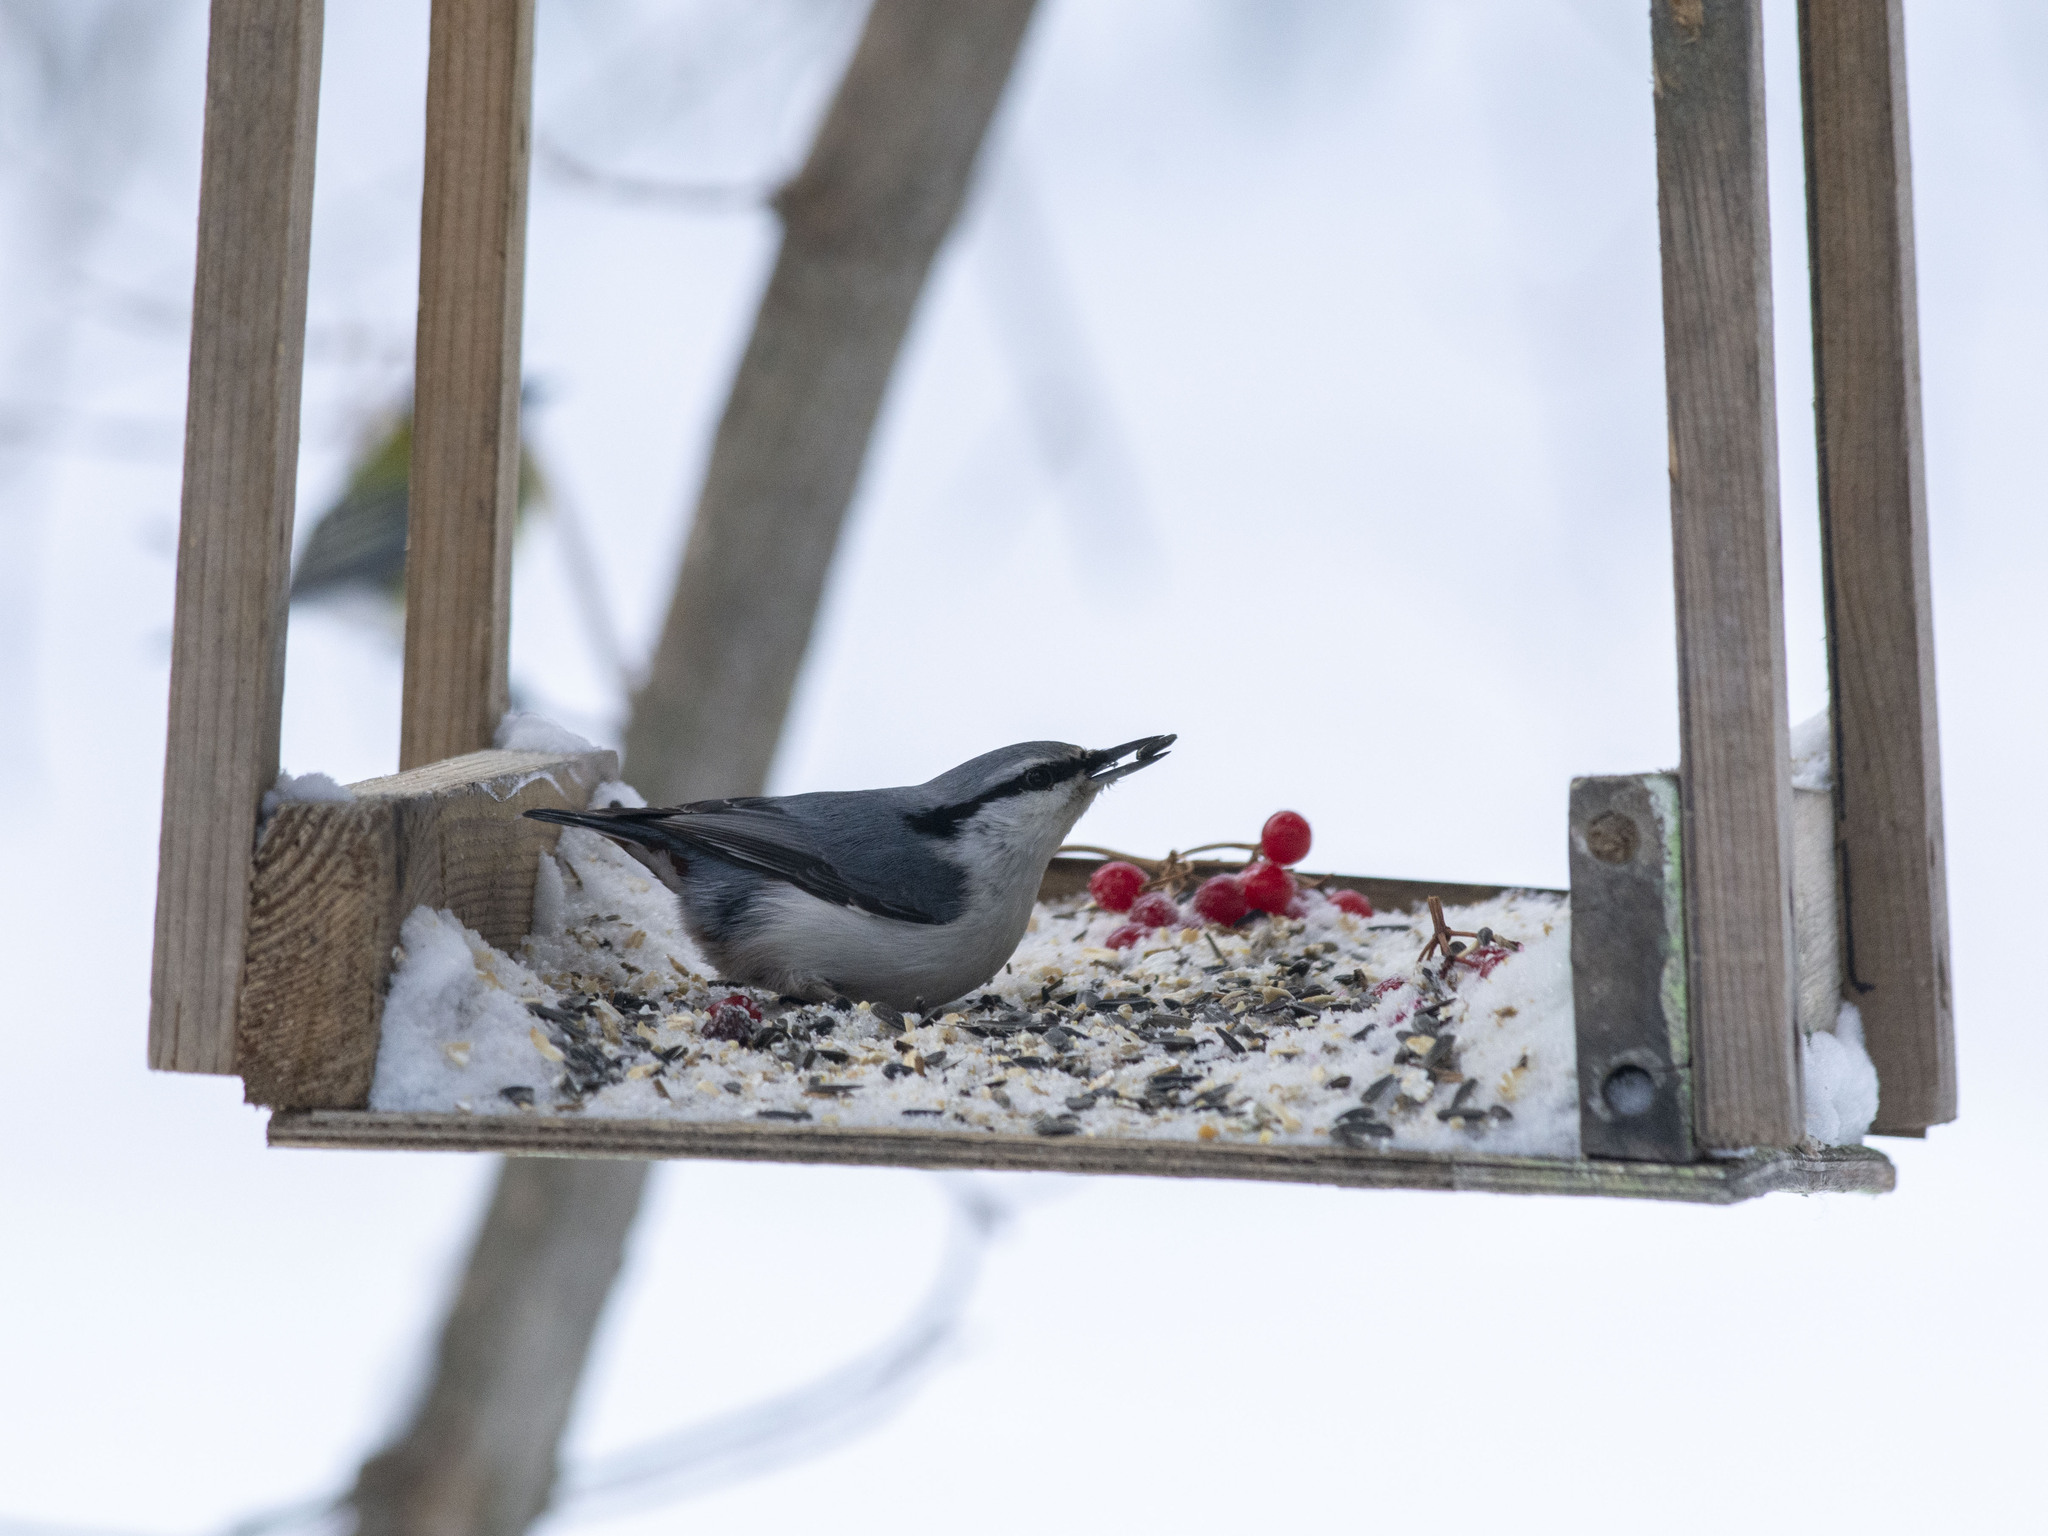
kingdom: Animalia
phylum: Chordata
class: Aves
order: Passeriformes
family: Sittidae
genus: Sitta
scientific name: Sitta europaea
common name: Eurasian nuthatch
